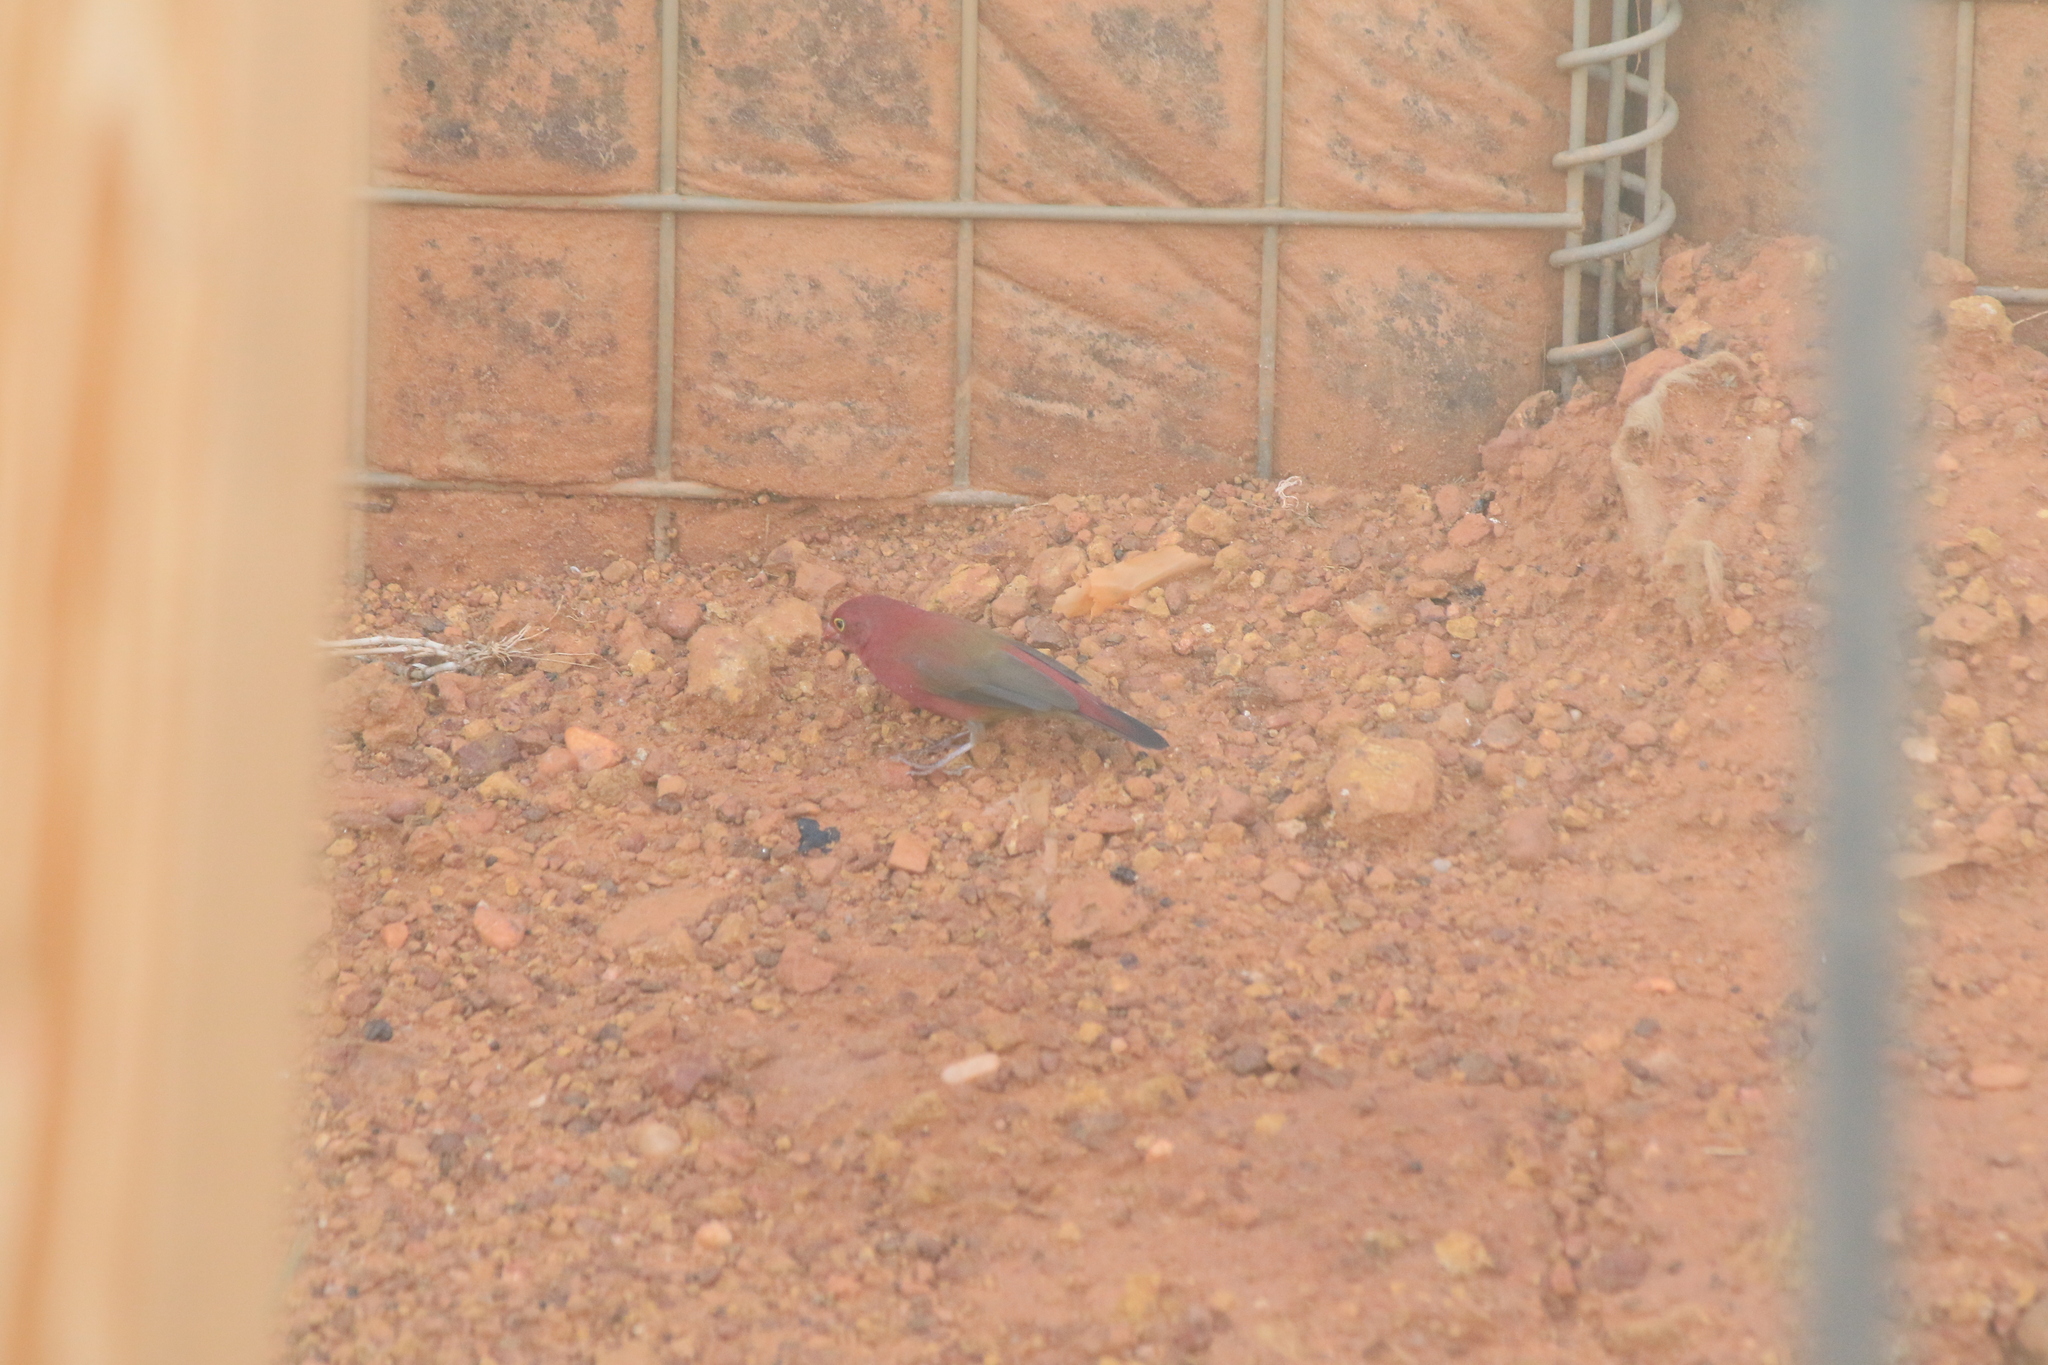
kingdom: Animalia
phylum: Chordata
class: Aves
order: Passeriformes
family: Estrildidae
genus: Lagonosticta
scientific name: Lagonosticta senegala
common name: Red-billed firefinch
